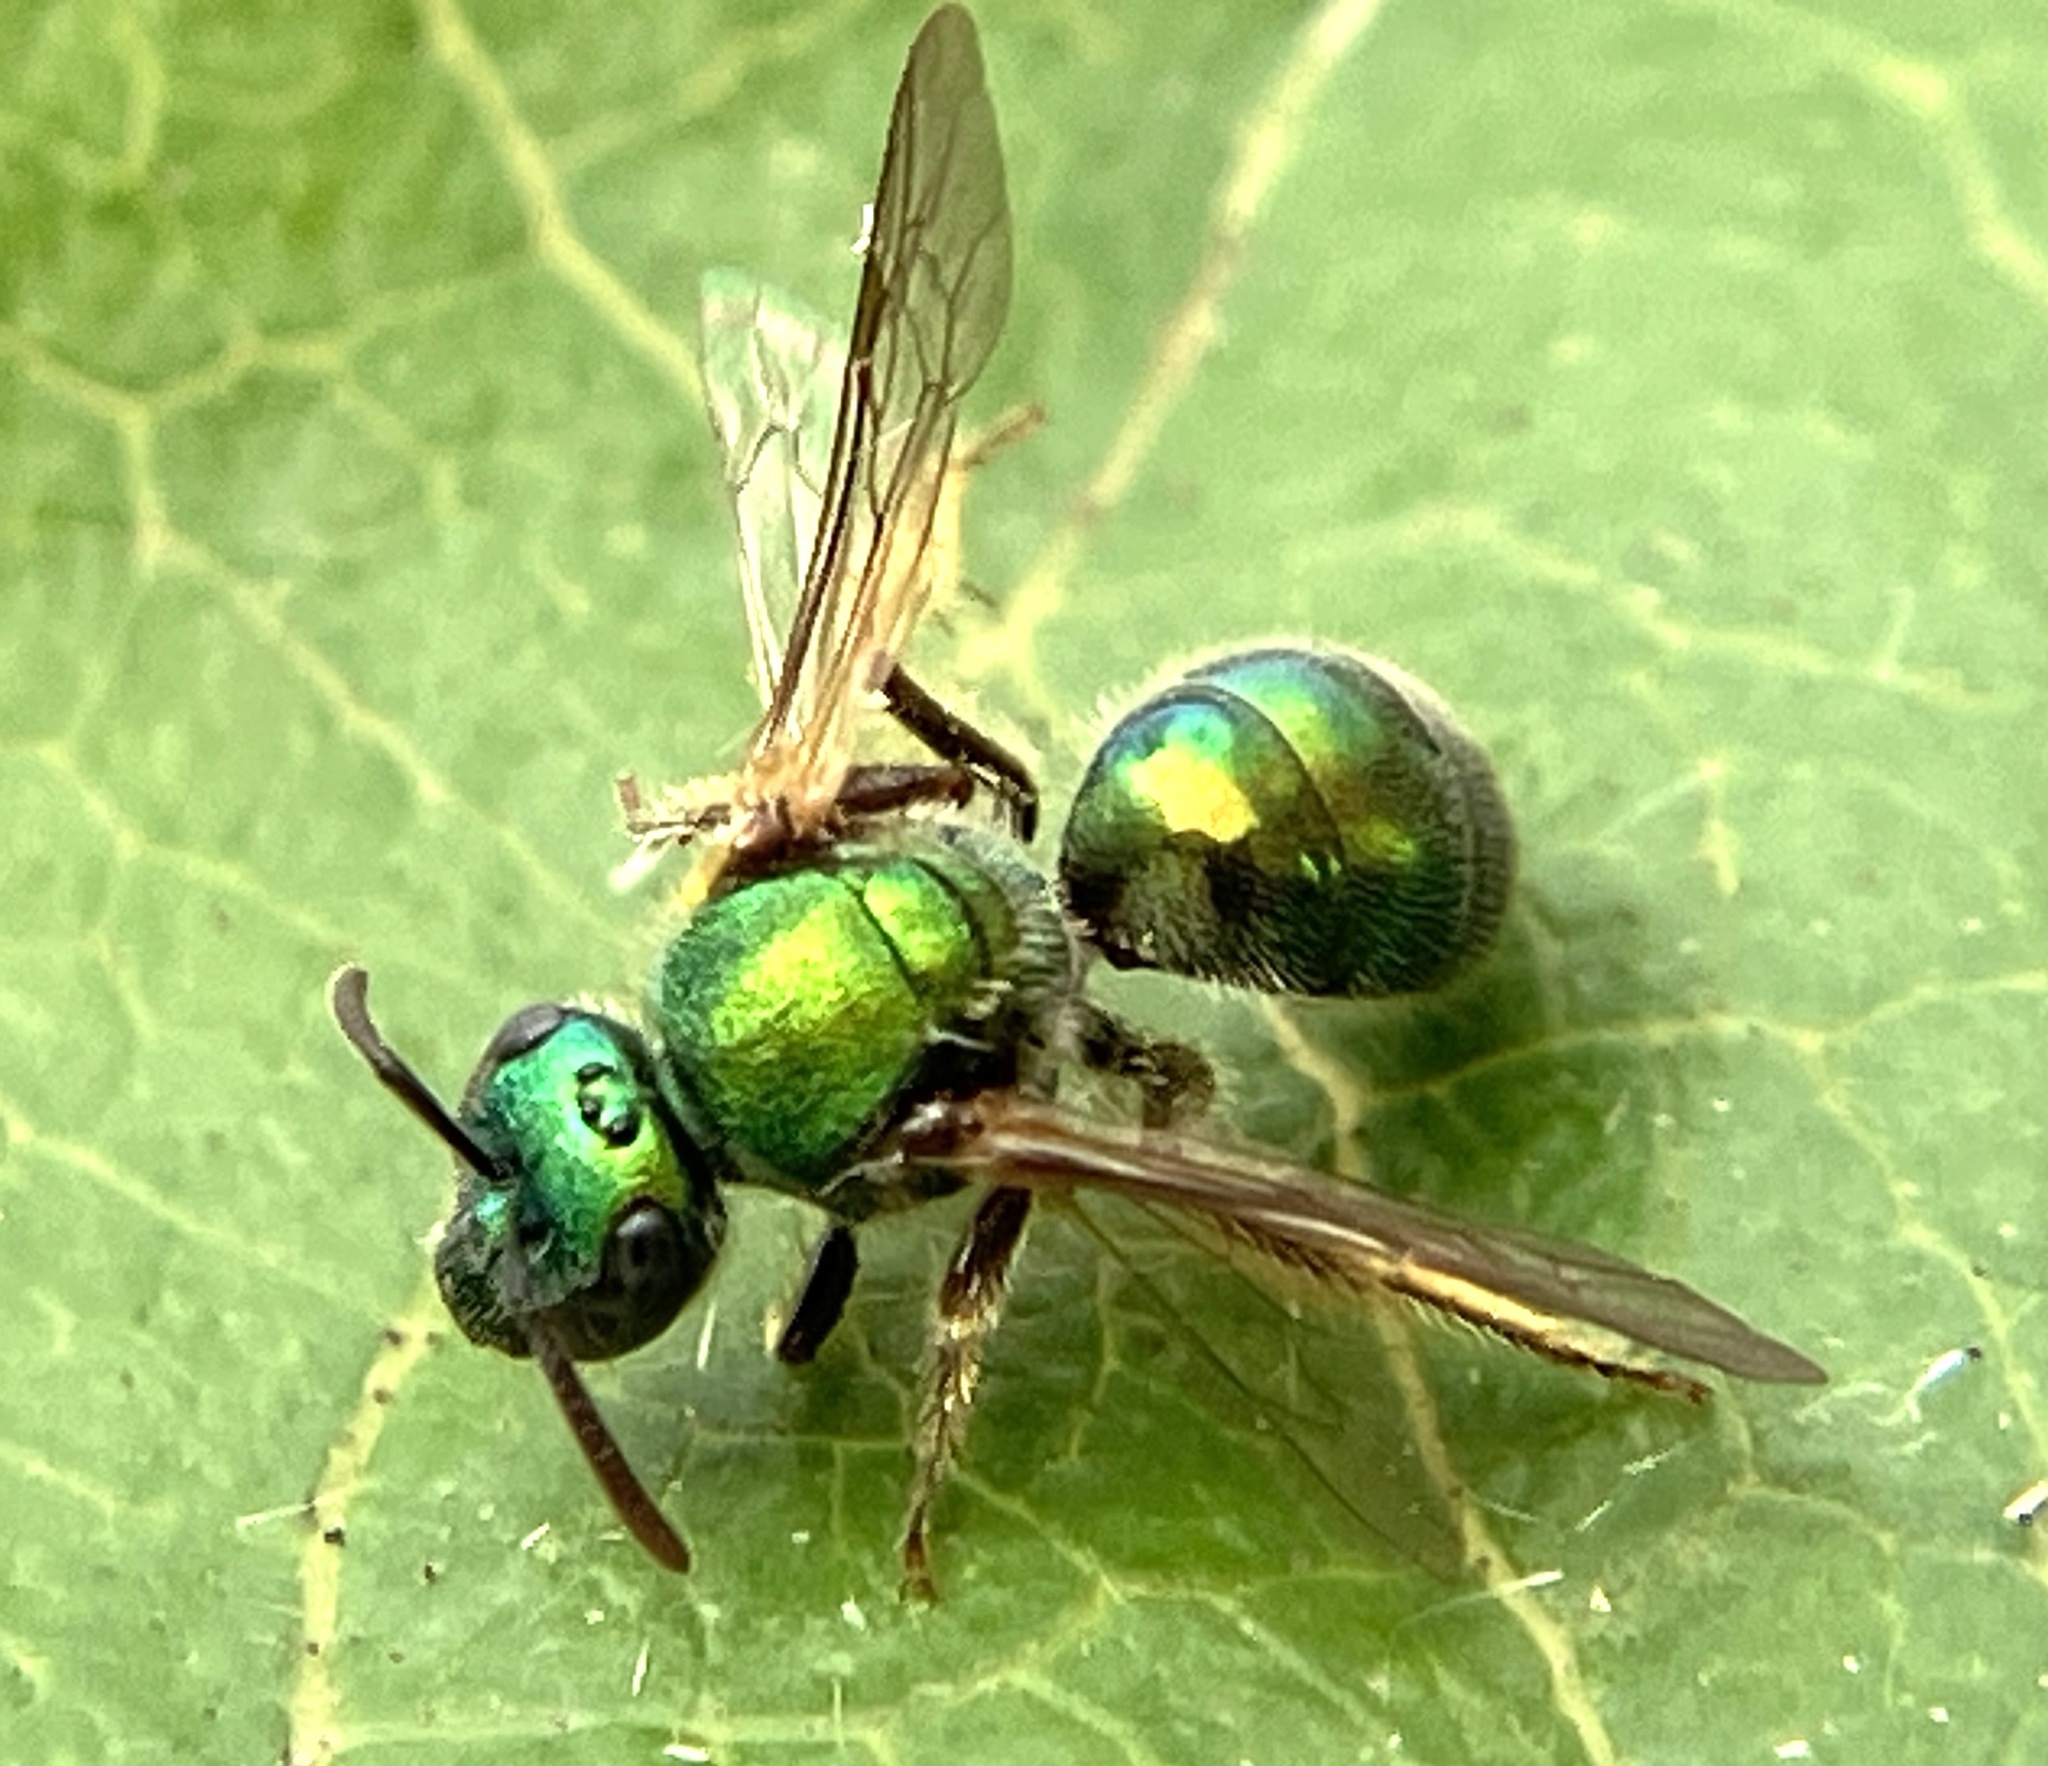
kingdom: Animalia
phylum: Arthropoda
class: Insecta
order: Hymenoptera
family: Halictidae
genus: Augochlora
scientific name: Augochlora pura
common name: Pure green sweat bee
